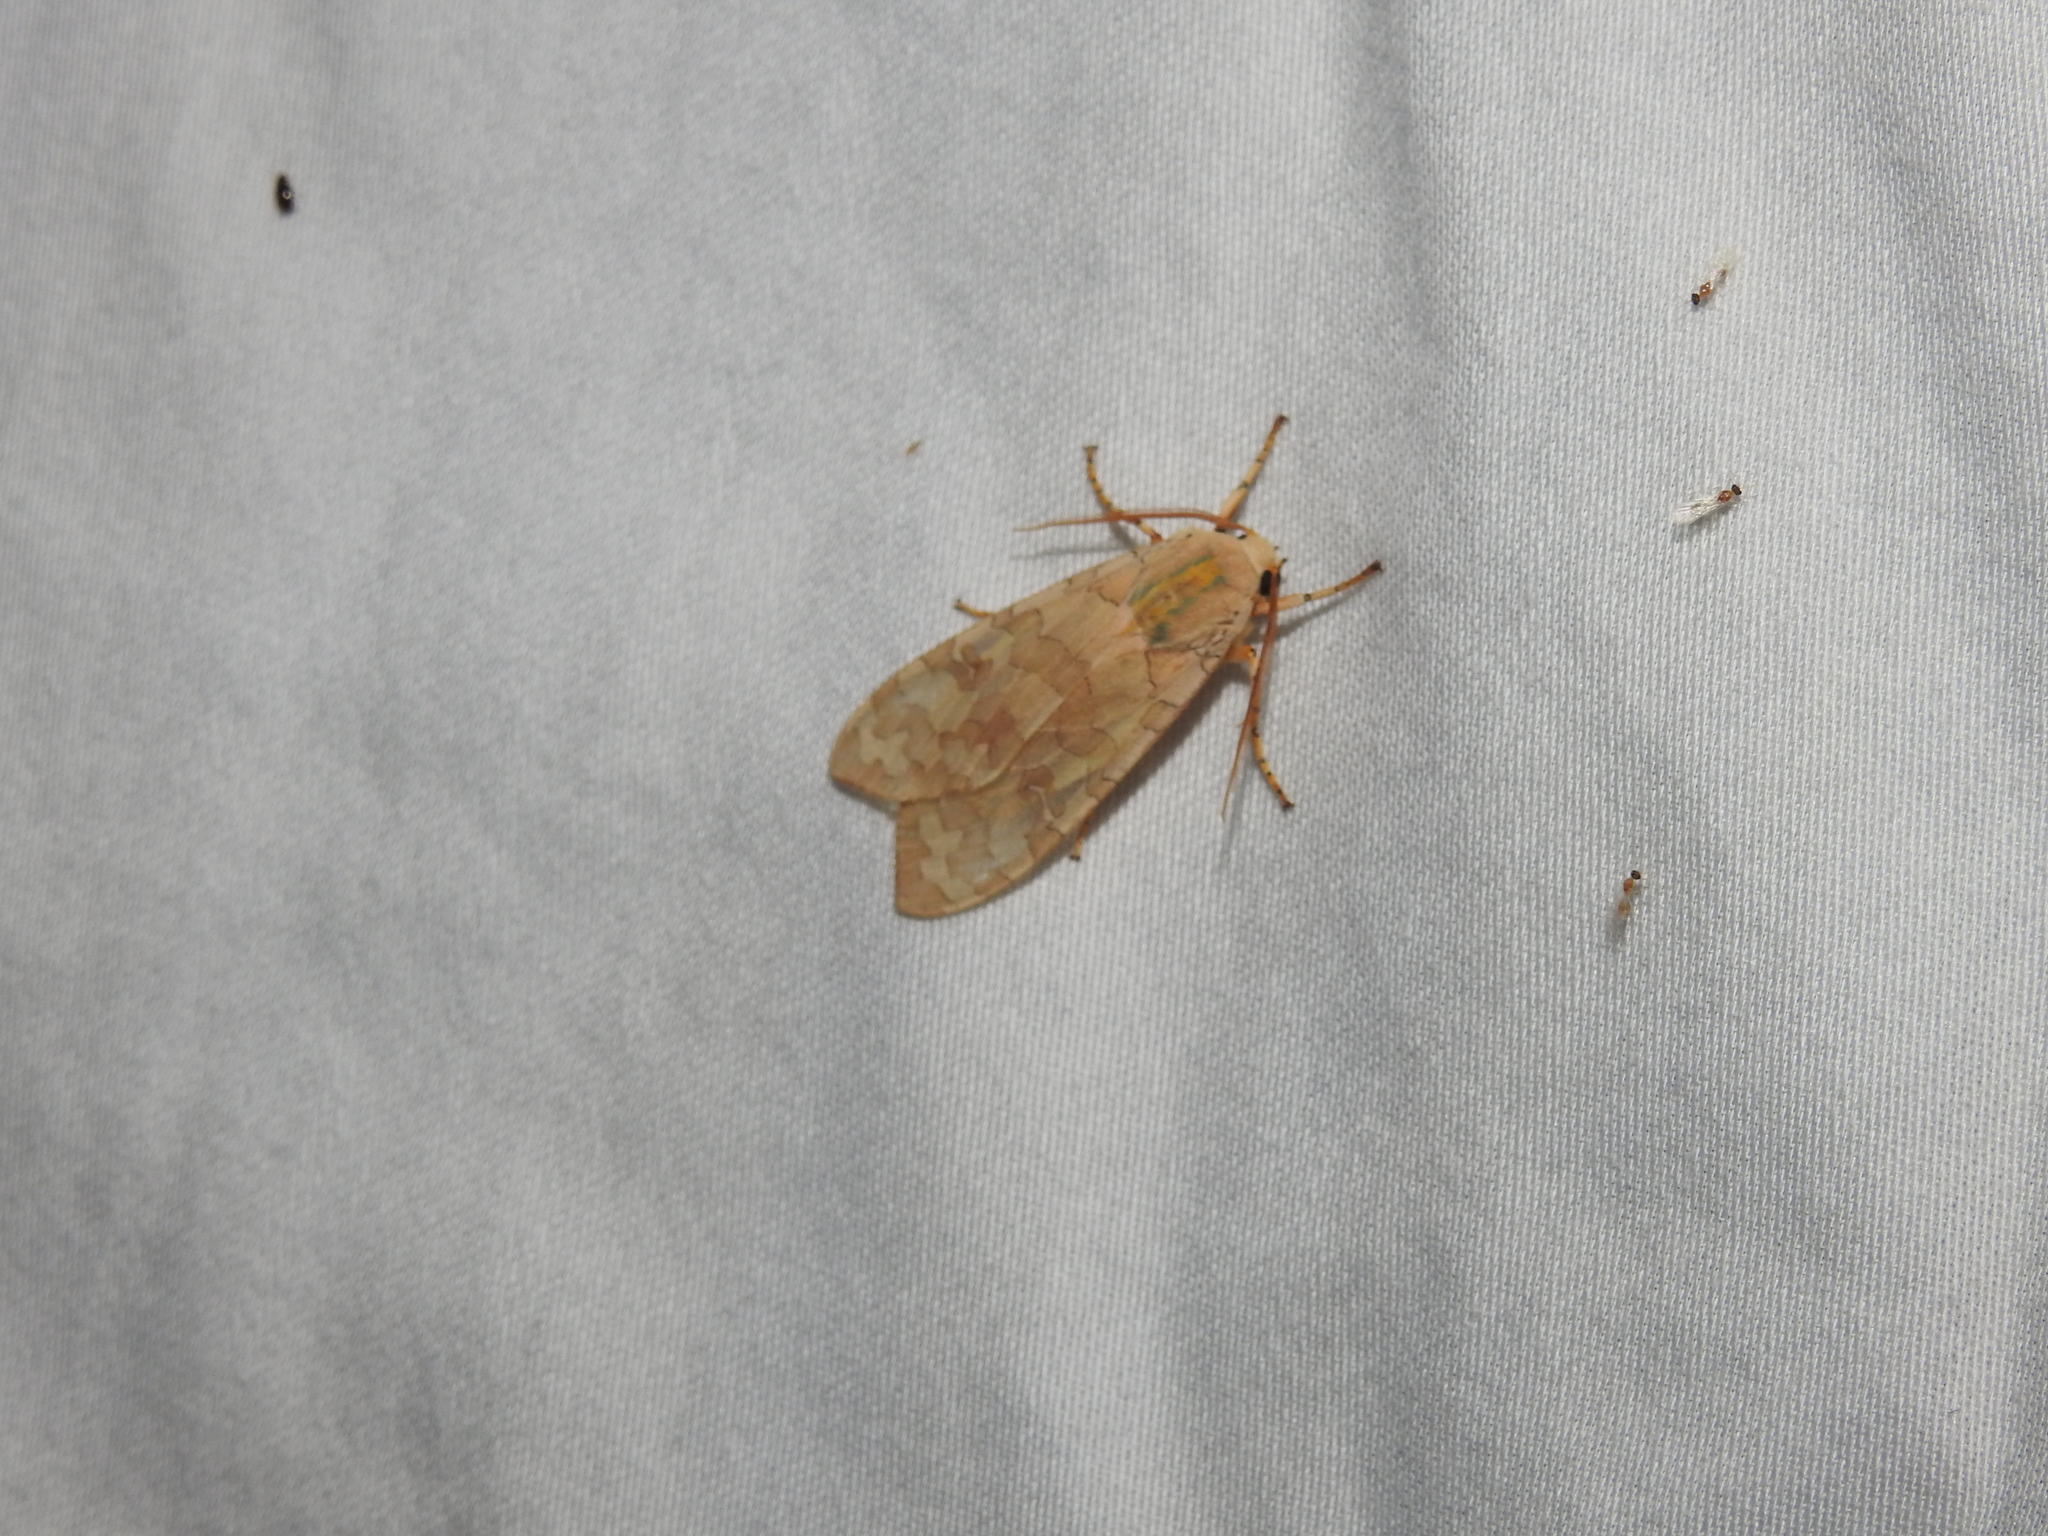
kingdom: Animalia
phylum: Arthropoda
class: Insecta
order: Lepidoptera
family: Erebidae
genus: Halysidota
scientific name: Halysidota
